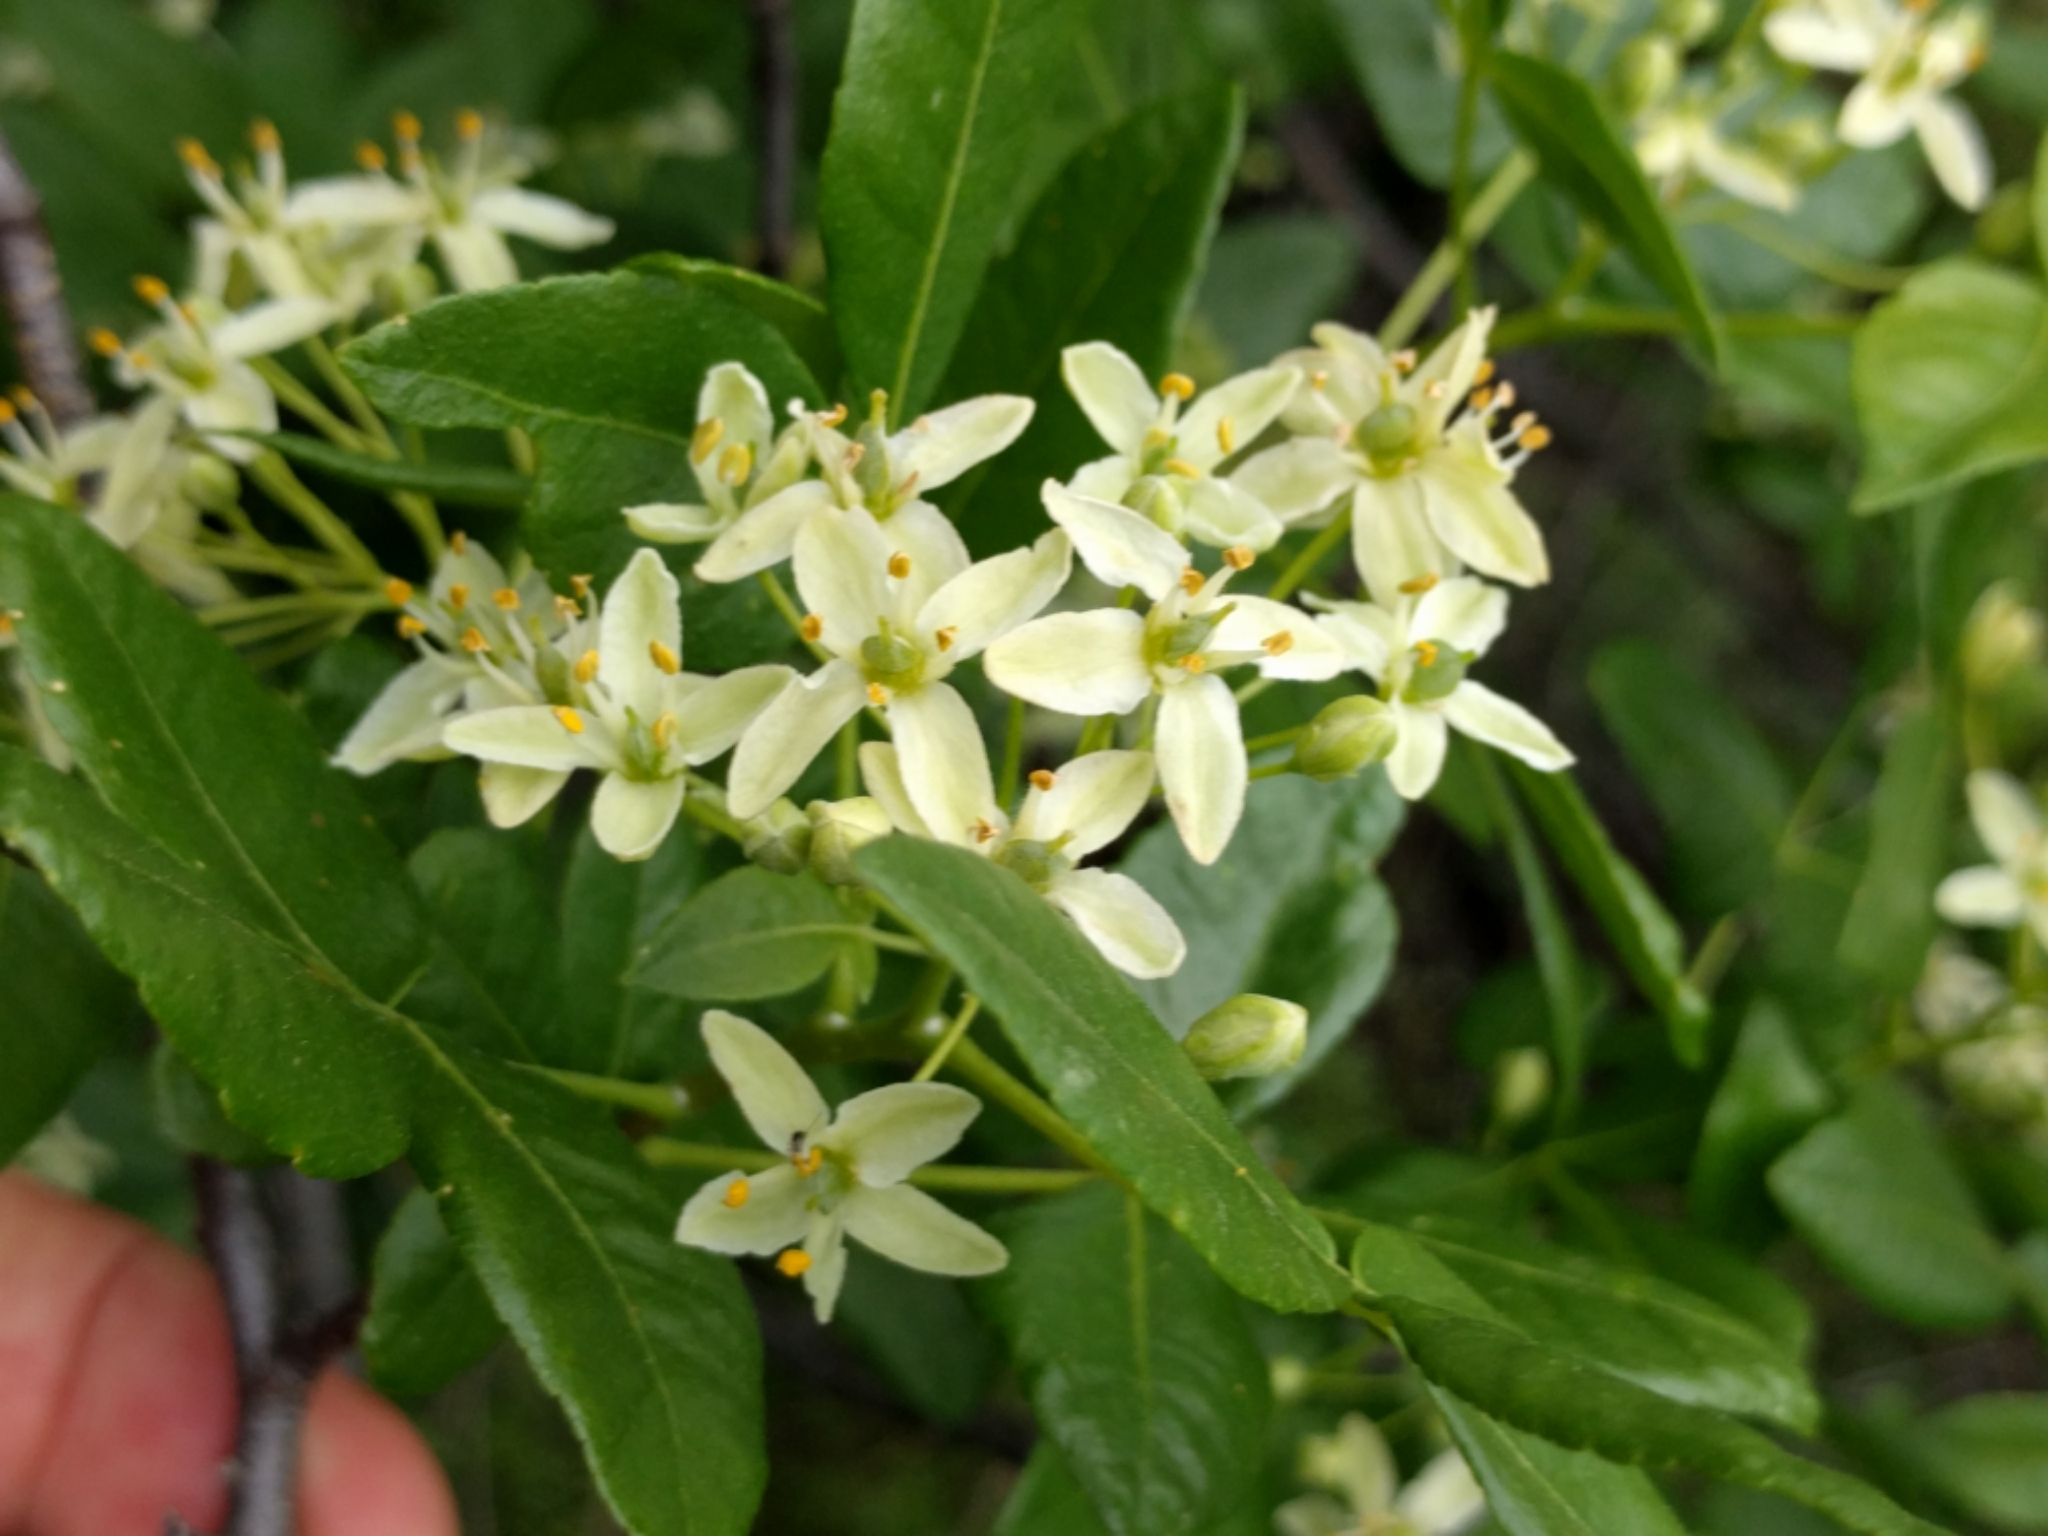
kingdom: Plantae
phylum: Tracheophyta
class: Magnoliopsida
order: Sapindales
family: Rutaceae
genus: Ptelea
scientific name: Ptelea crenulata
